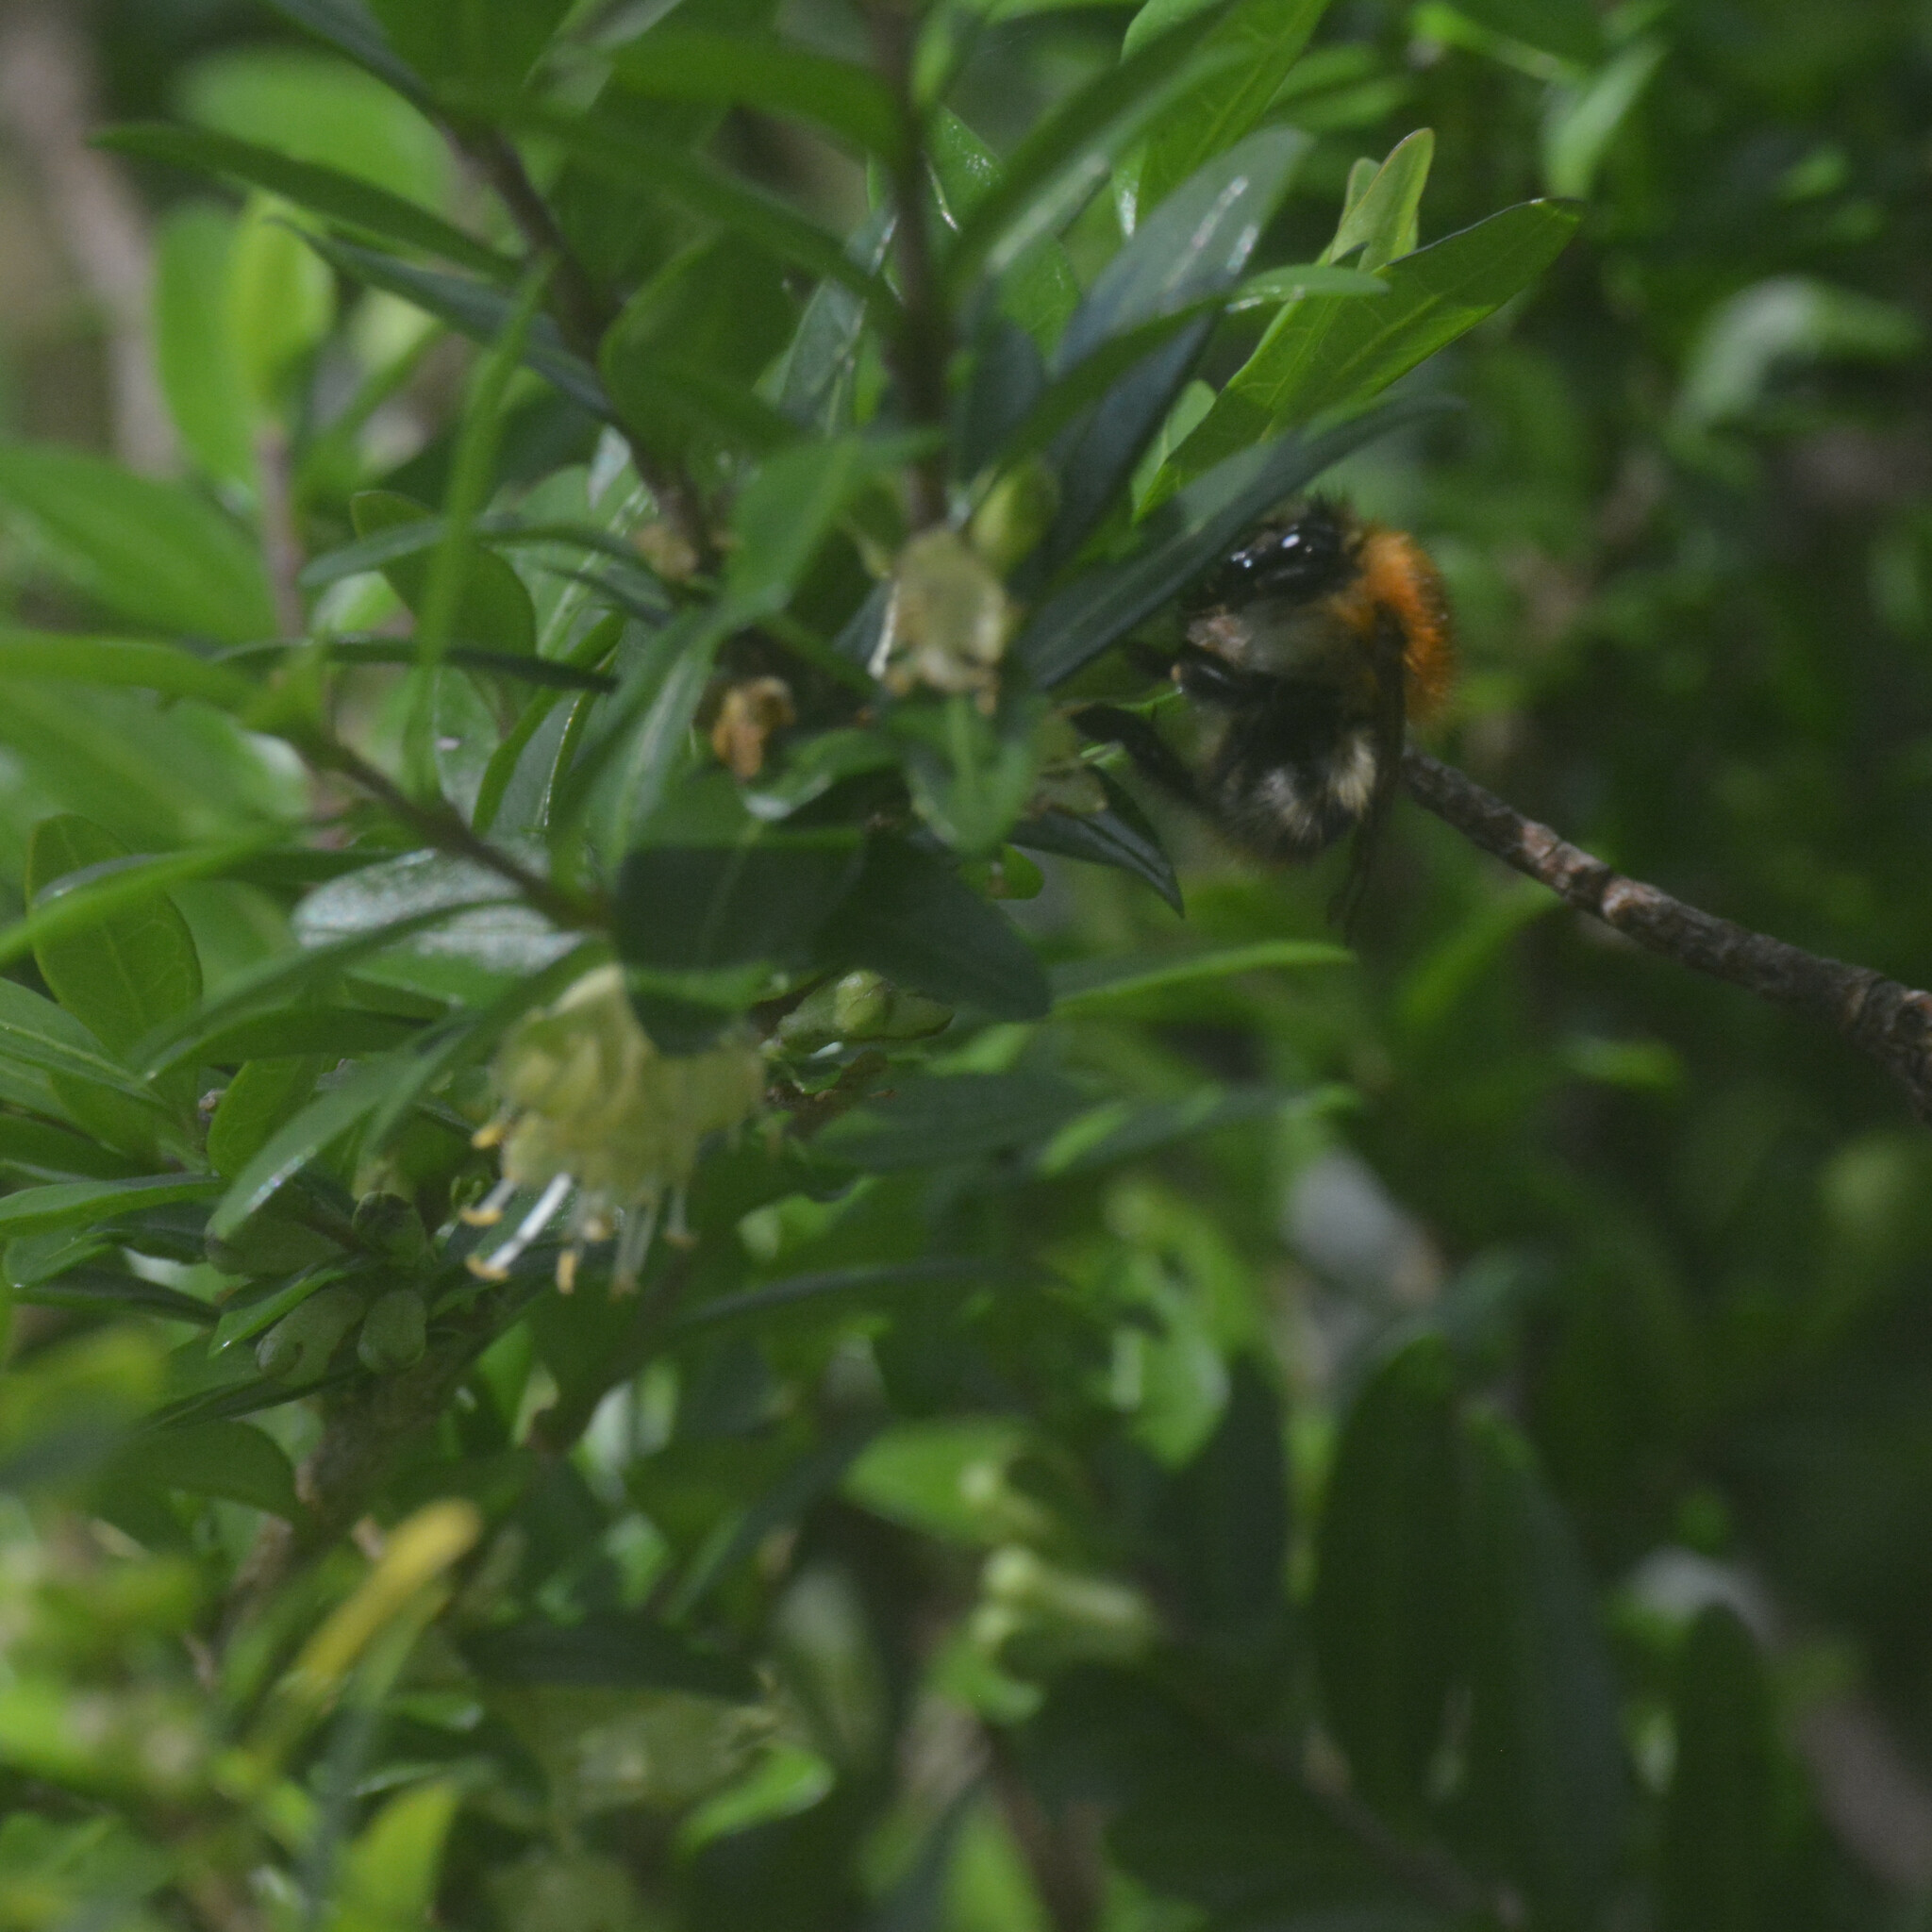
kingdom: Animalia
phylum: Arthropoda
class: Insecta
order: Hymenoptera
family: Apidae
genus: Bombus
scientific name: Bombus pascuorum
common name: Common carder bee
